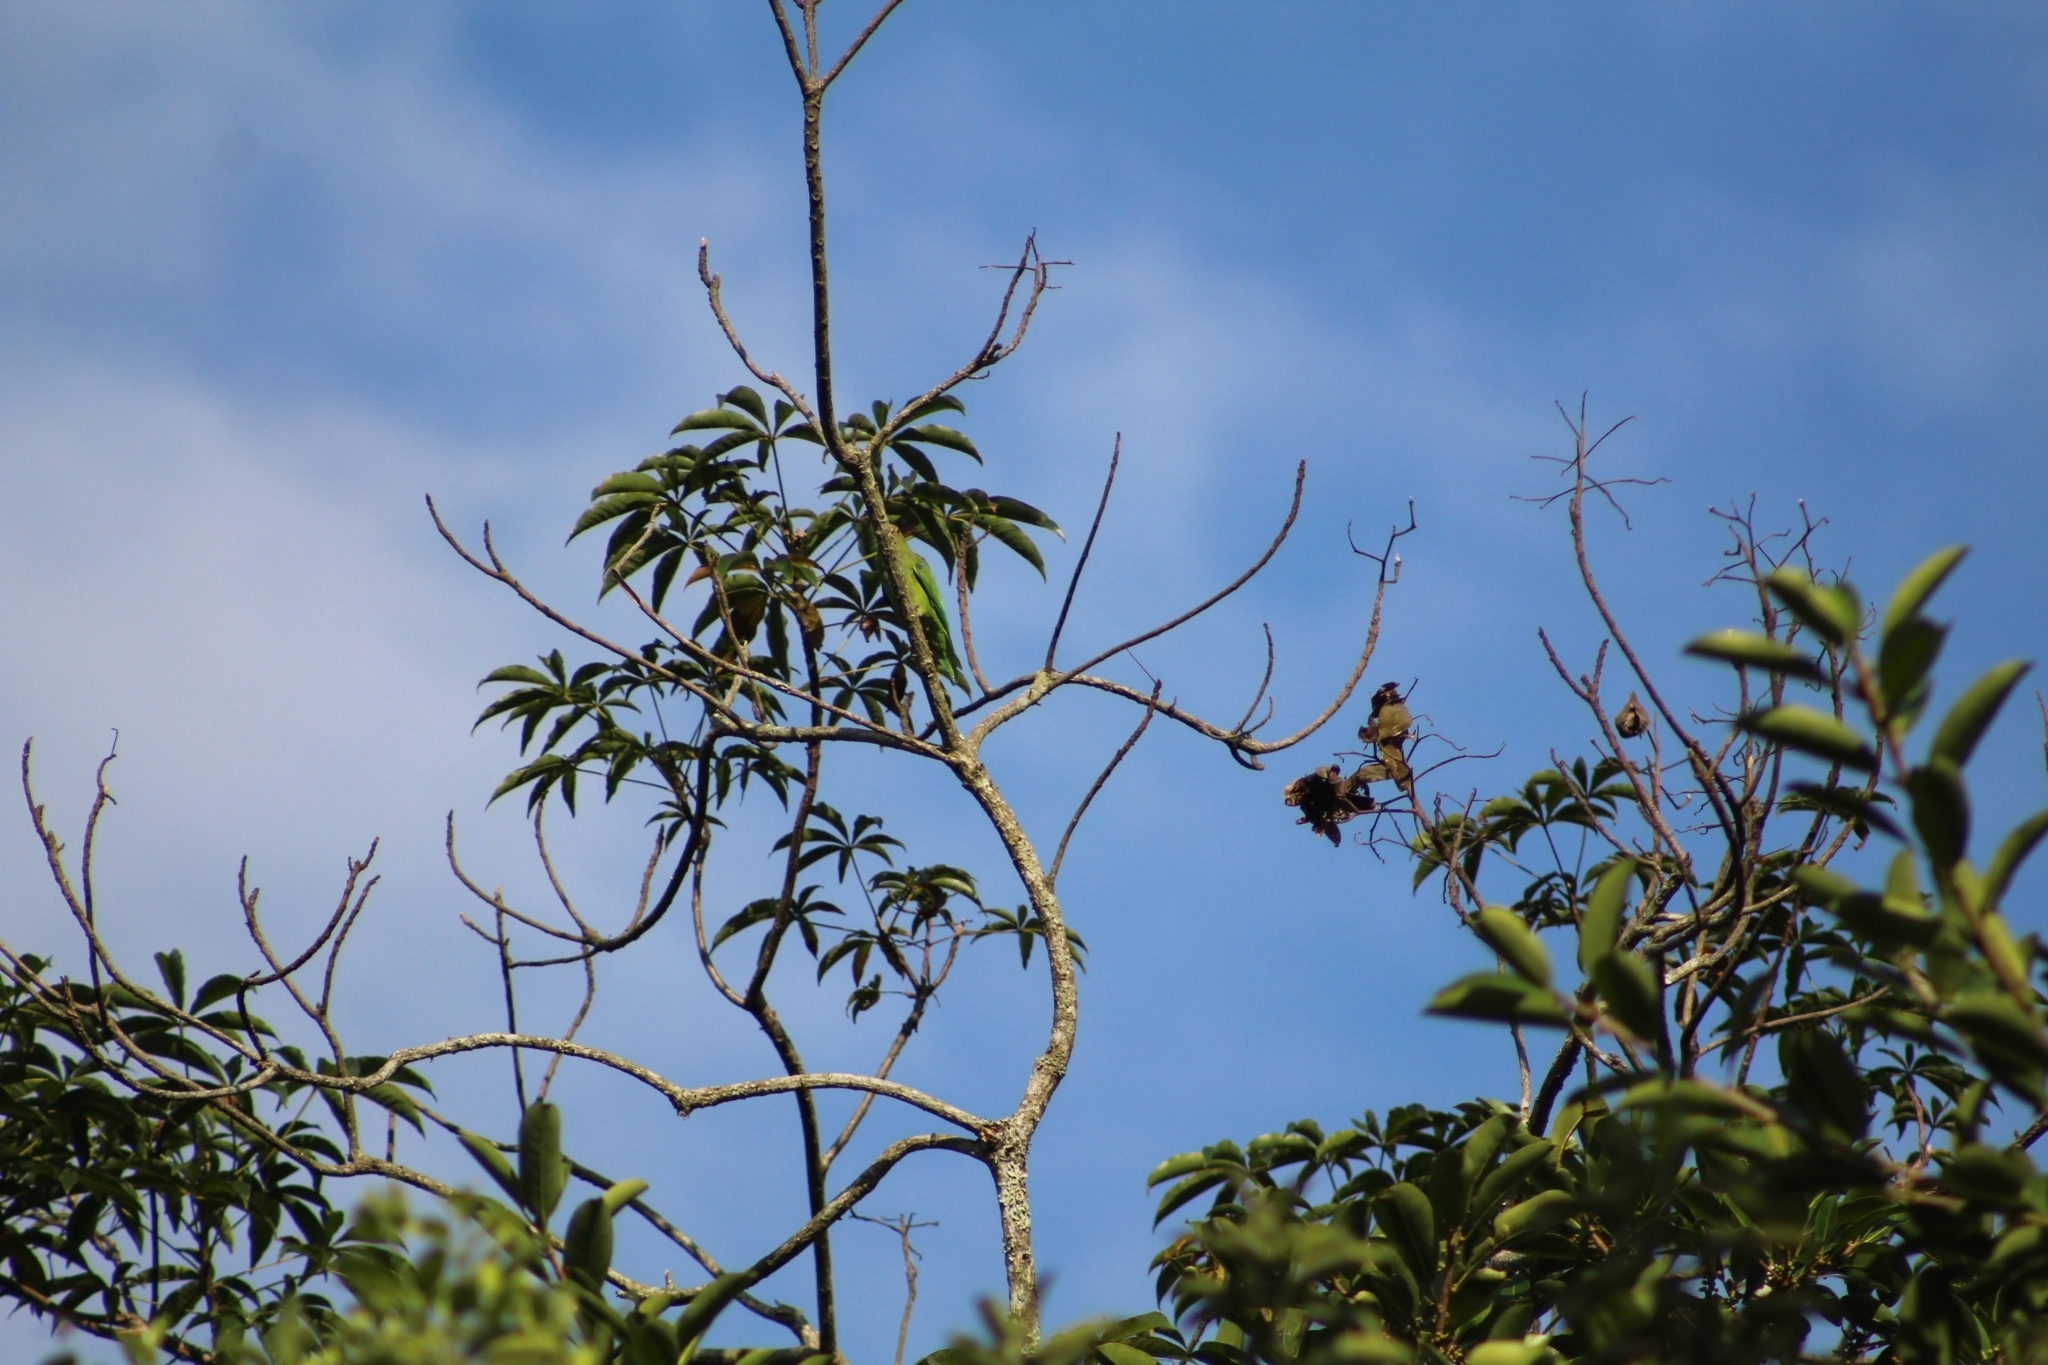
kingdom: Animalia
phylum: Chordata
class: Aves
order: Psittaciformes
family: Psittacidae
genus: Brotogeris
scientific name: Brotogeris cyanoptera
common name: Cobalt-winged parakeet
